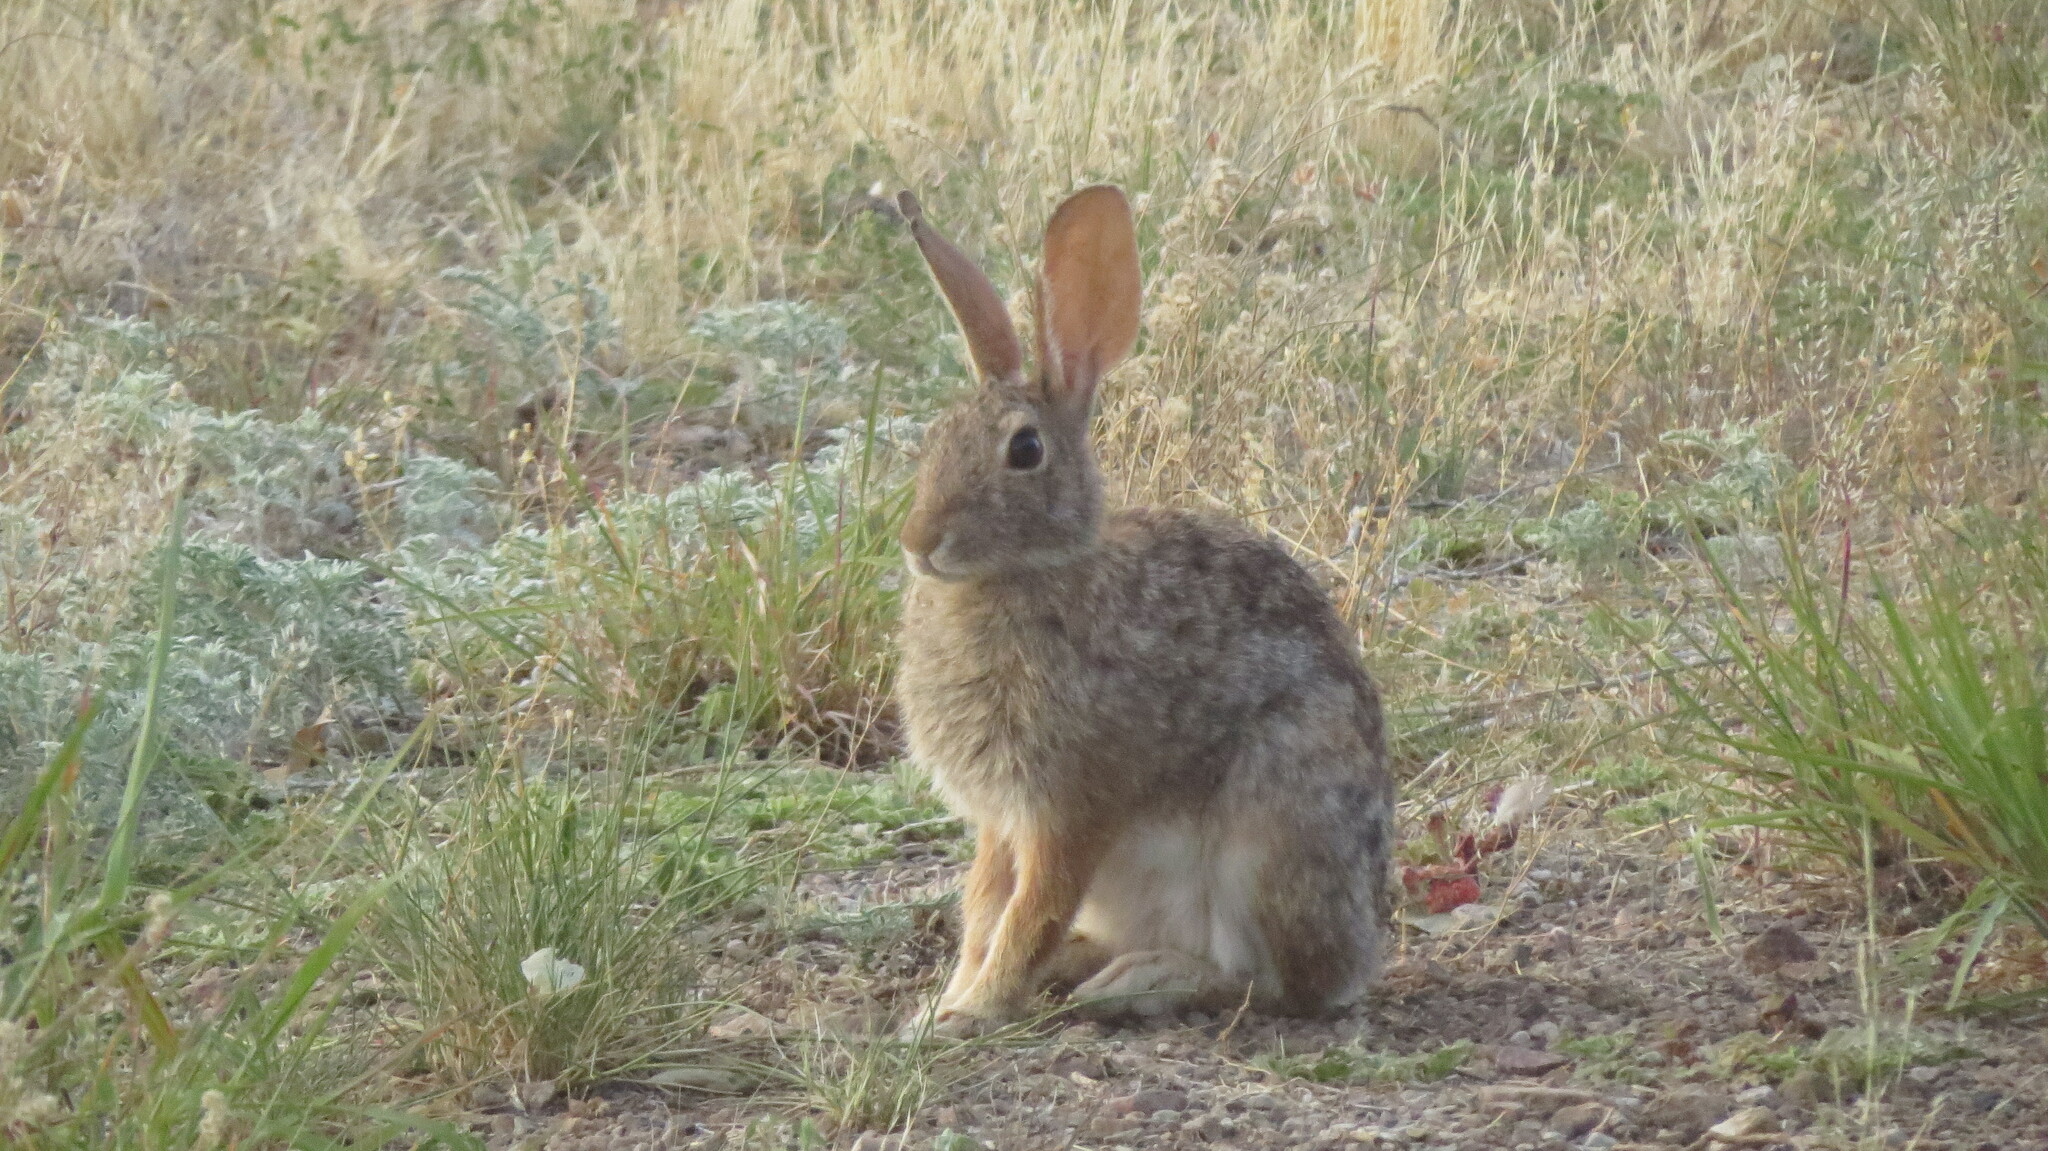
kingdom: Animalia
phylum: Chordata
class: Mammalia
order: Lagomorpha
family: Leporidae
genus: Sylvilagus
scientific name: Sylvilagus audubonii
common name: Desert cottontail
